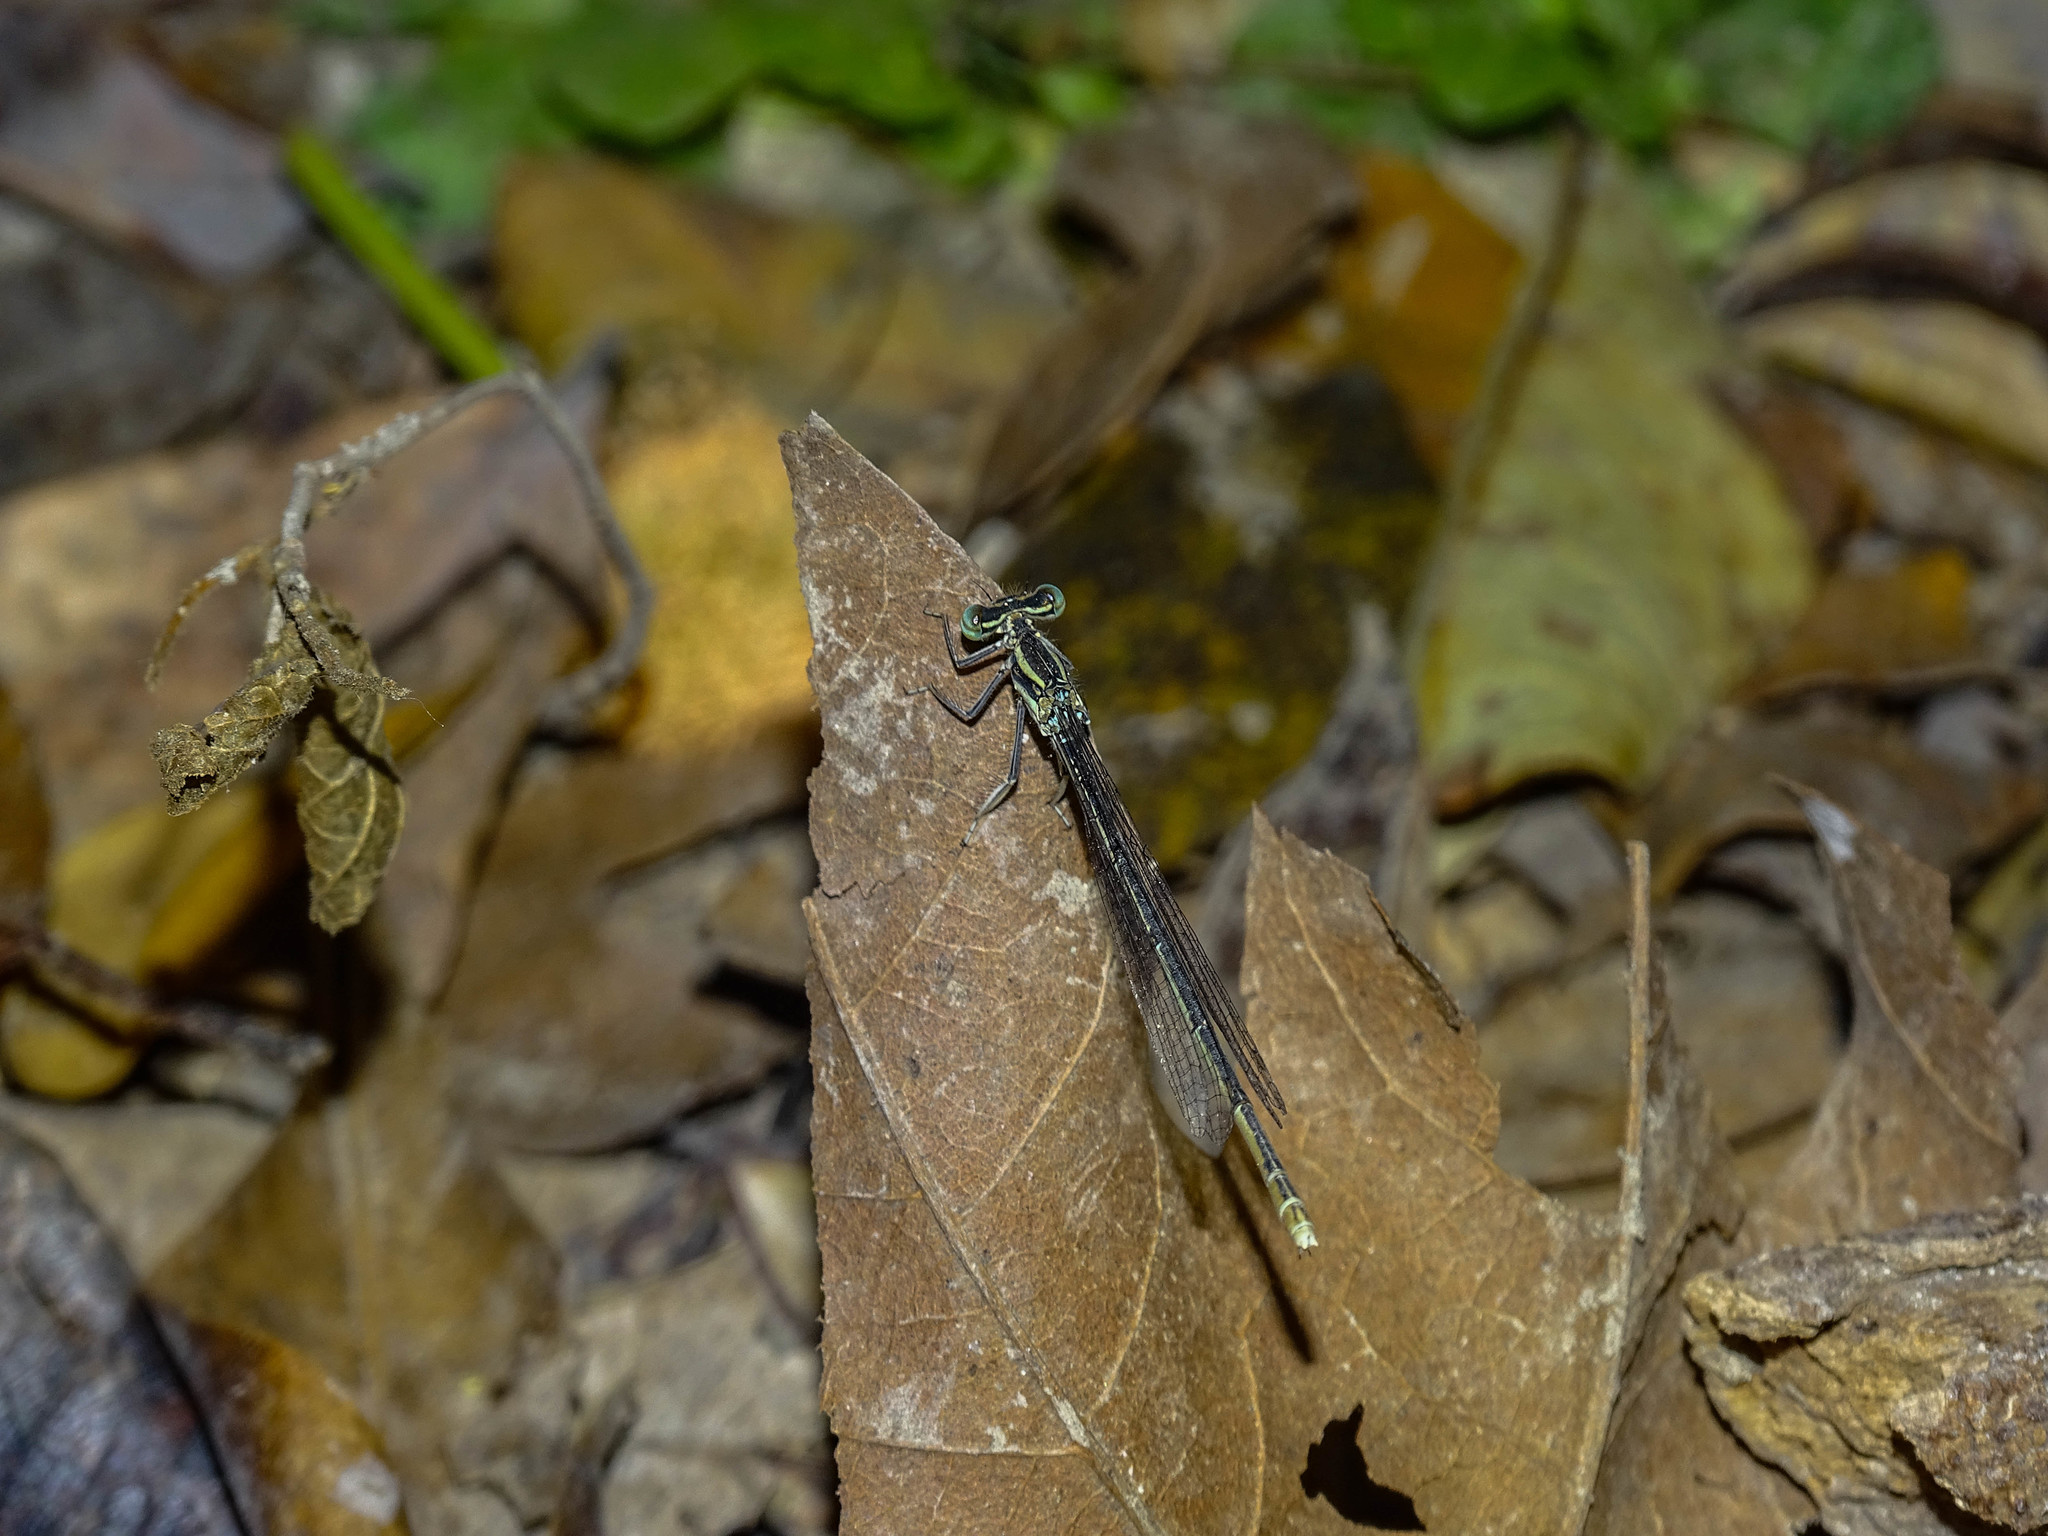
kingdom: Animalia
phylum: Arthropoda
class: Insecta
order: Odonata
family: Platycnemididae
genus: Platycnemis
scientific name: Platycnemis pennipes
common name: White-legged damselfly
